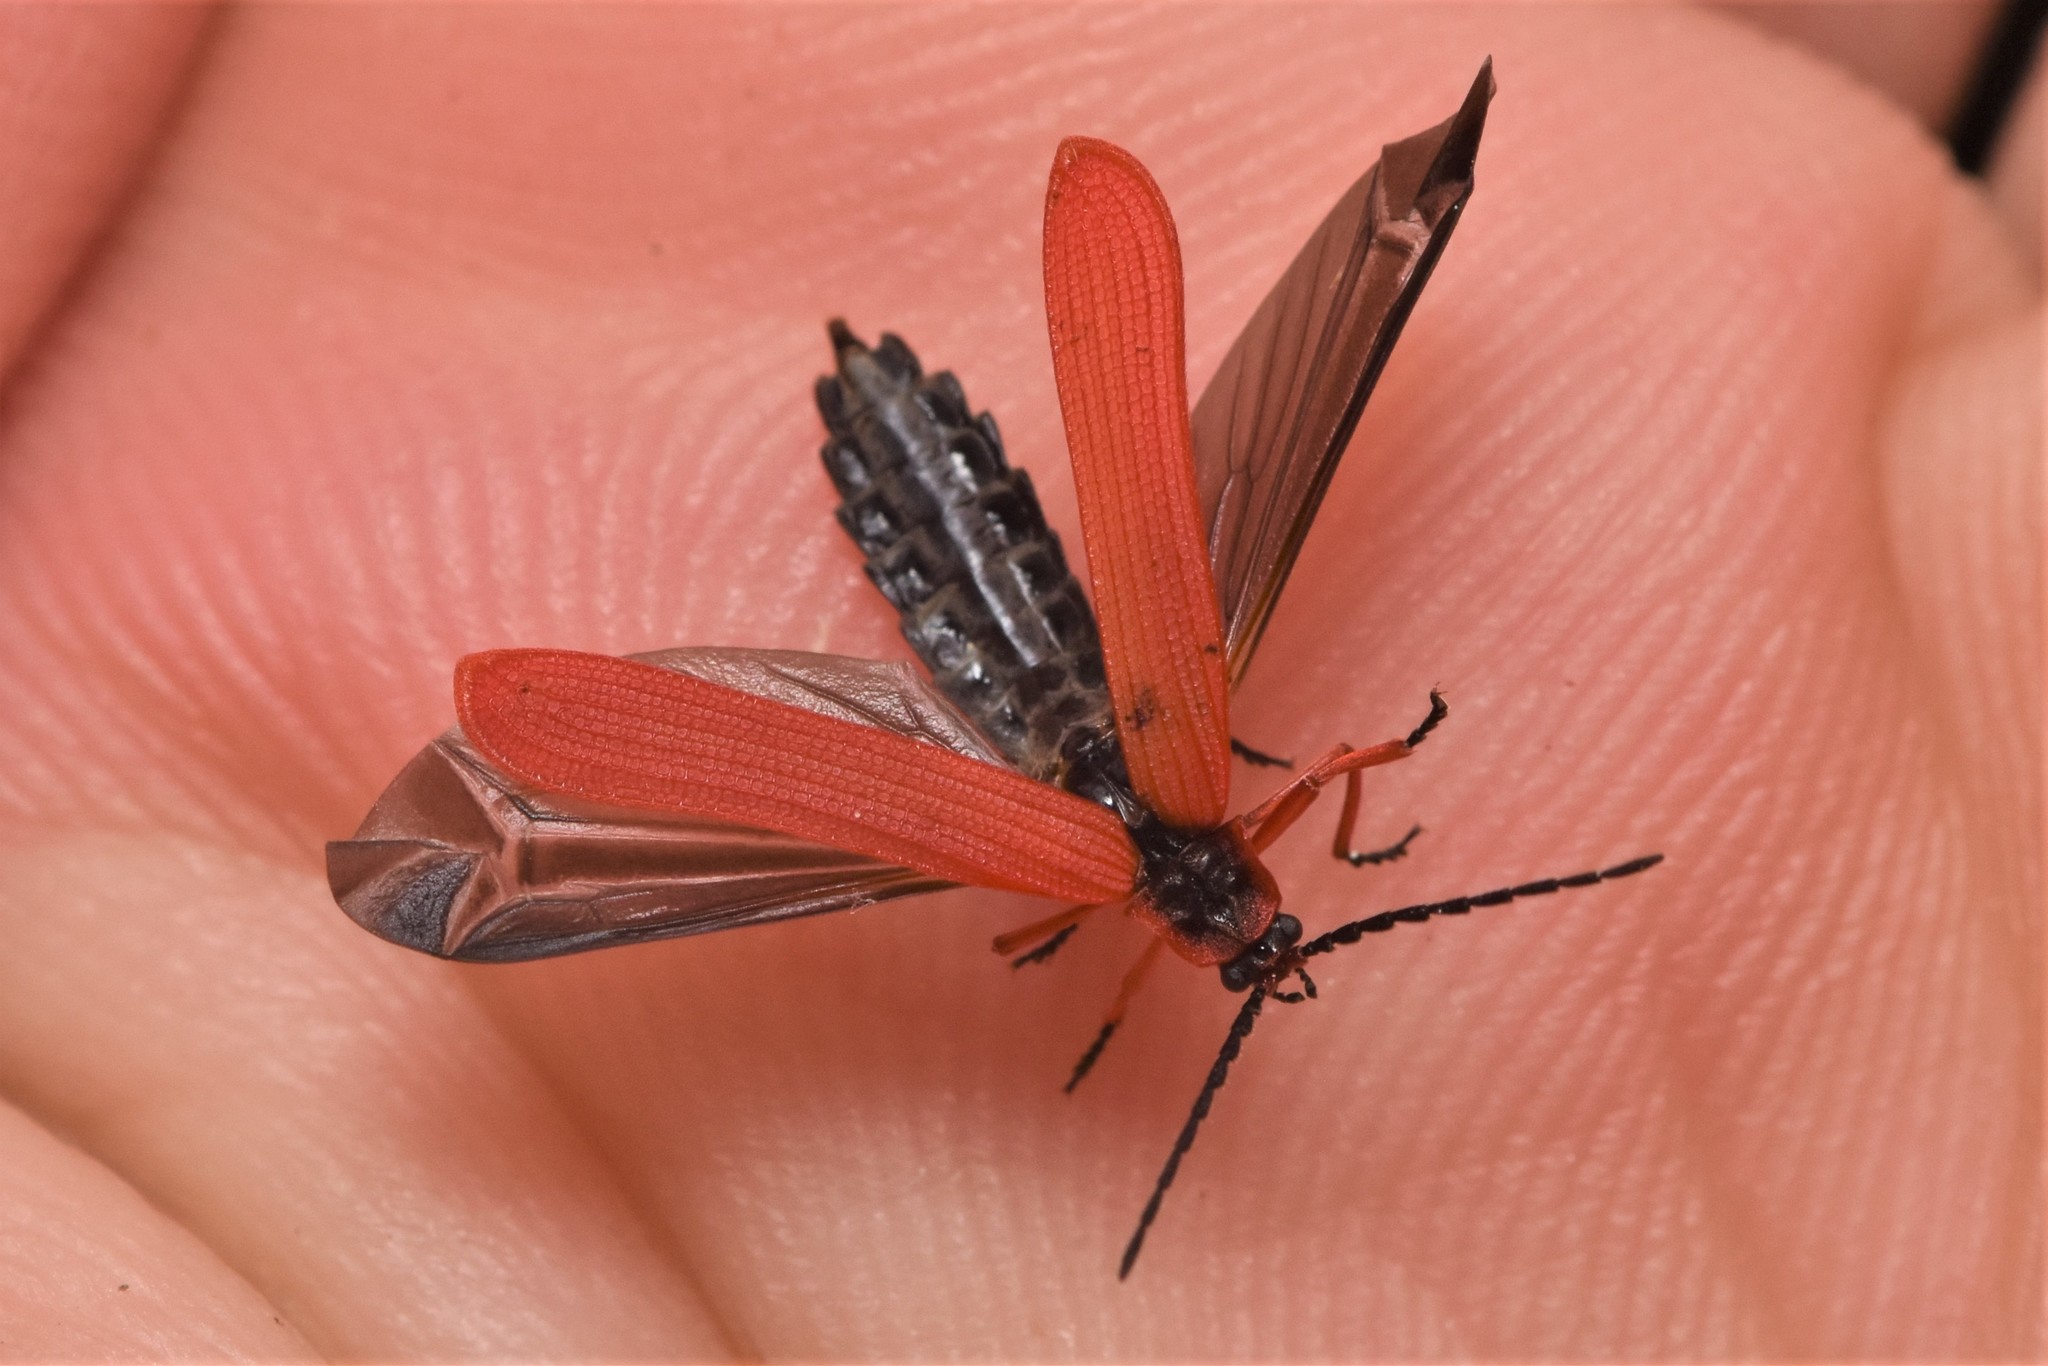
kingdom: Animalia
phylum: Arthropoda
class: Insecta
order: Coleoptera
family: Lycidae
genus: Dictyoptera
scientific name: Dictyoptera simplicipes
